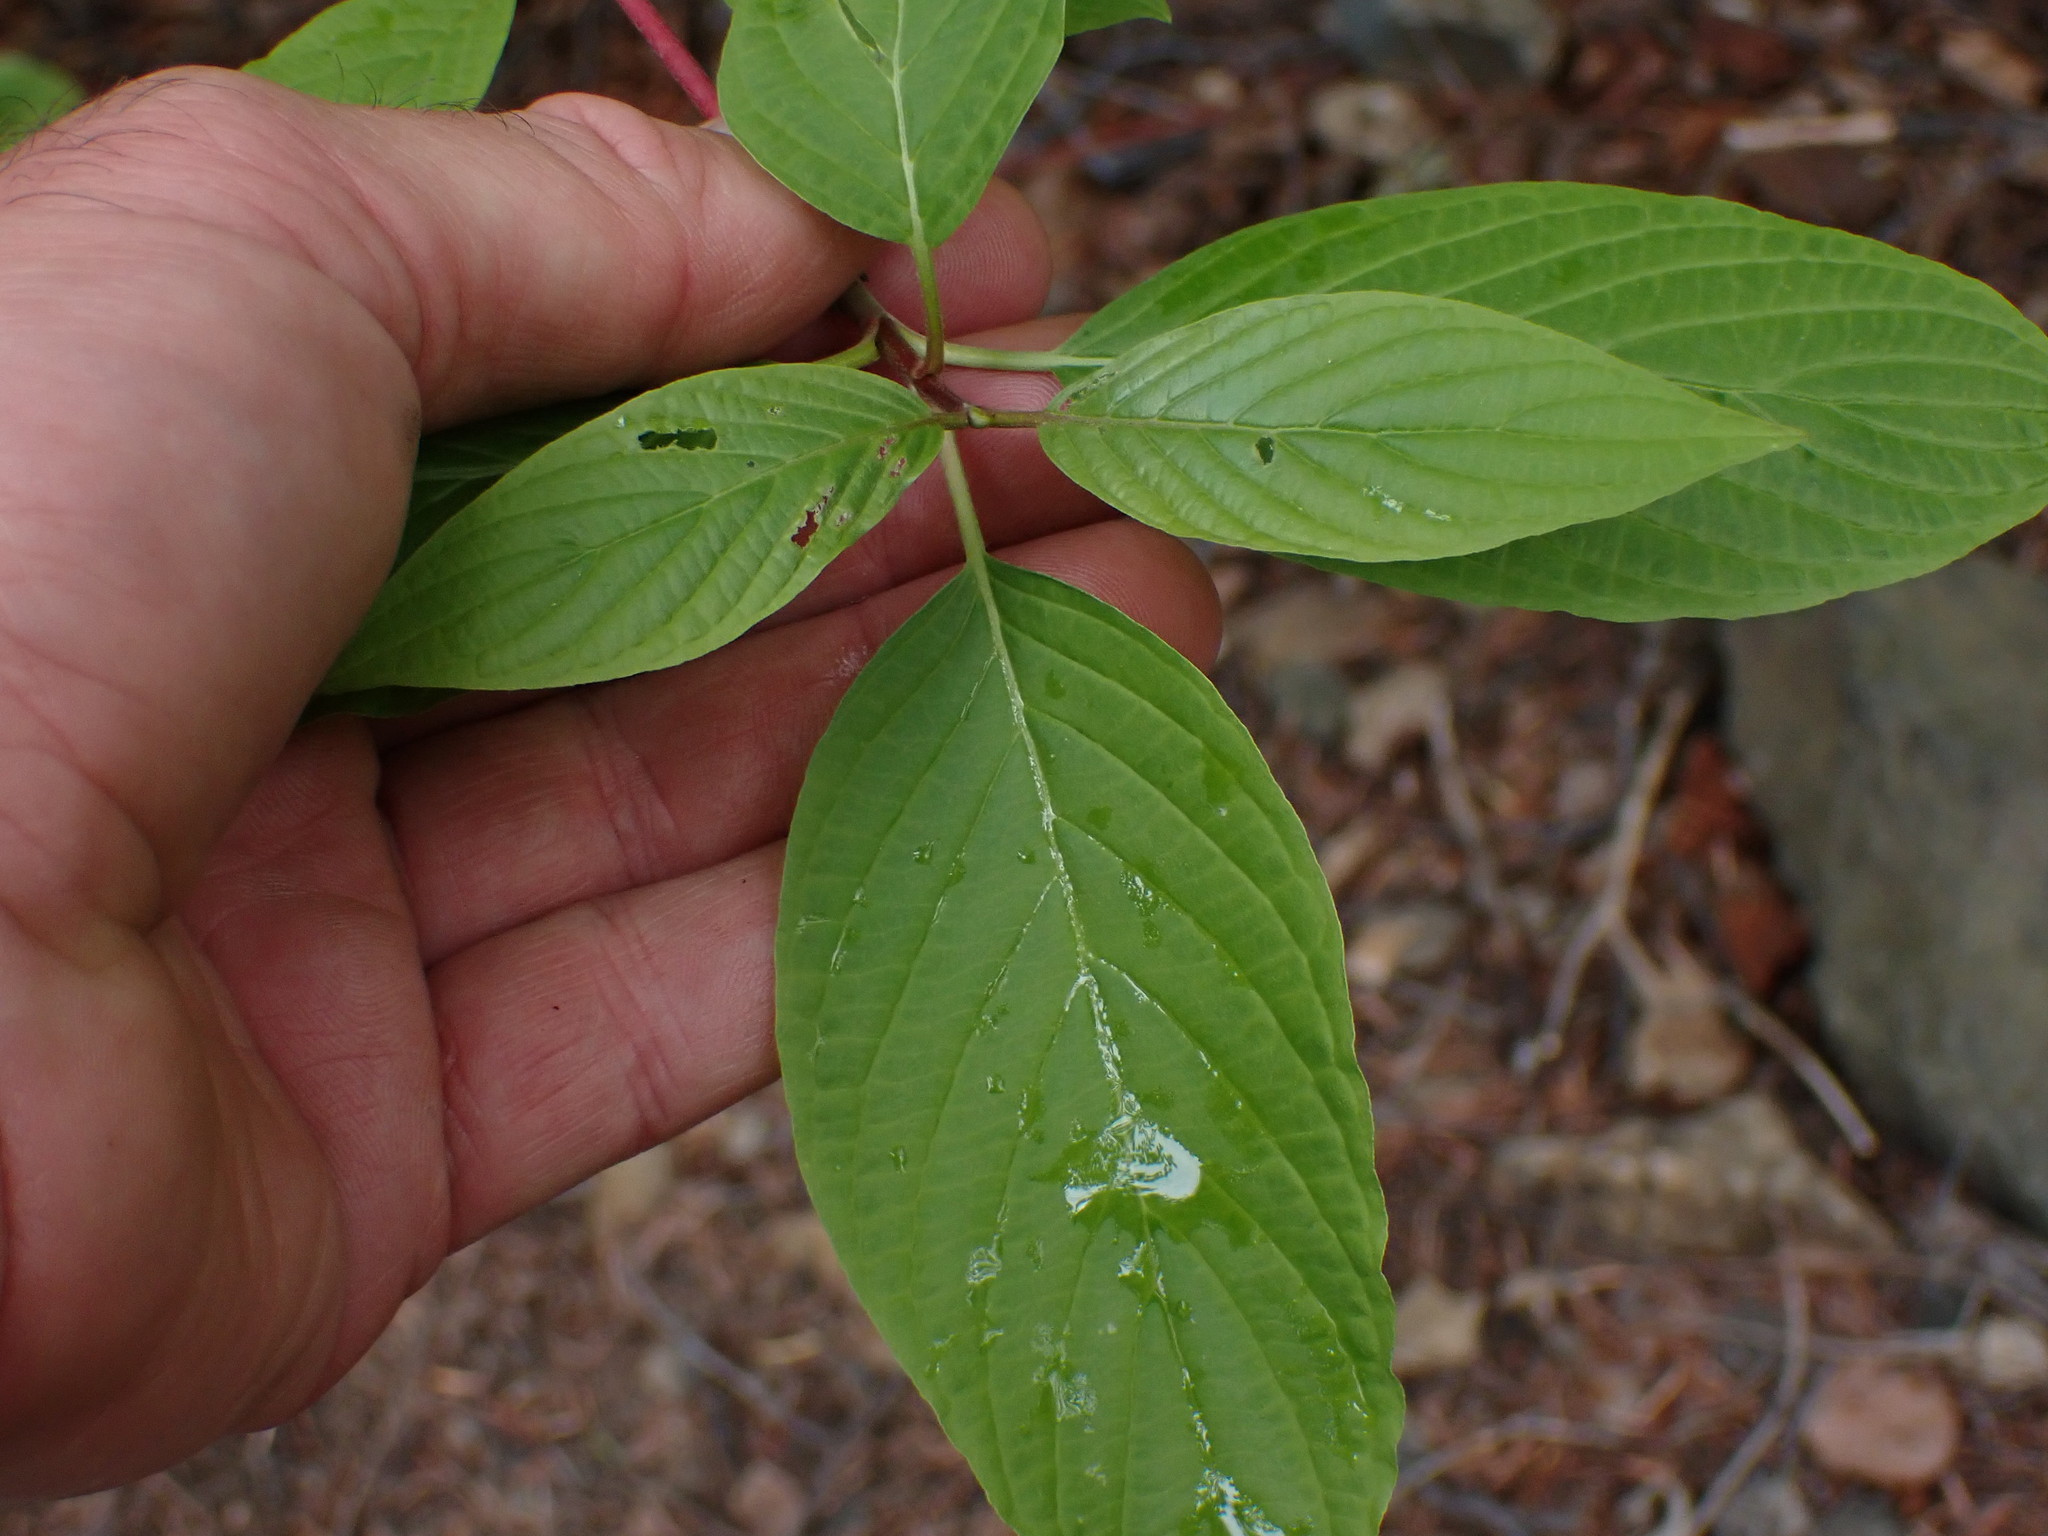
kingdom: Plantae
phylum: Tracheophyta
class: Magnoliopsida
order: Cornales
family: Cornaceae
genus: Cornus
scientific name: Cornus sericea
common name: Red-osier dogwood
